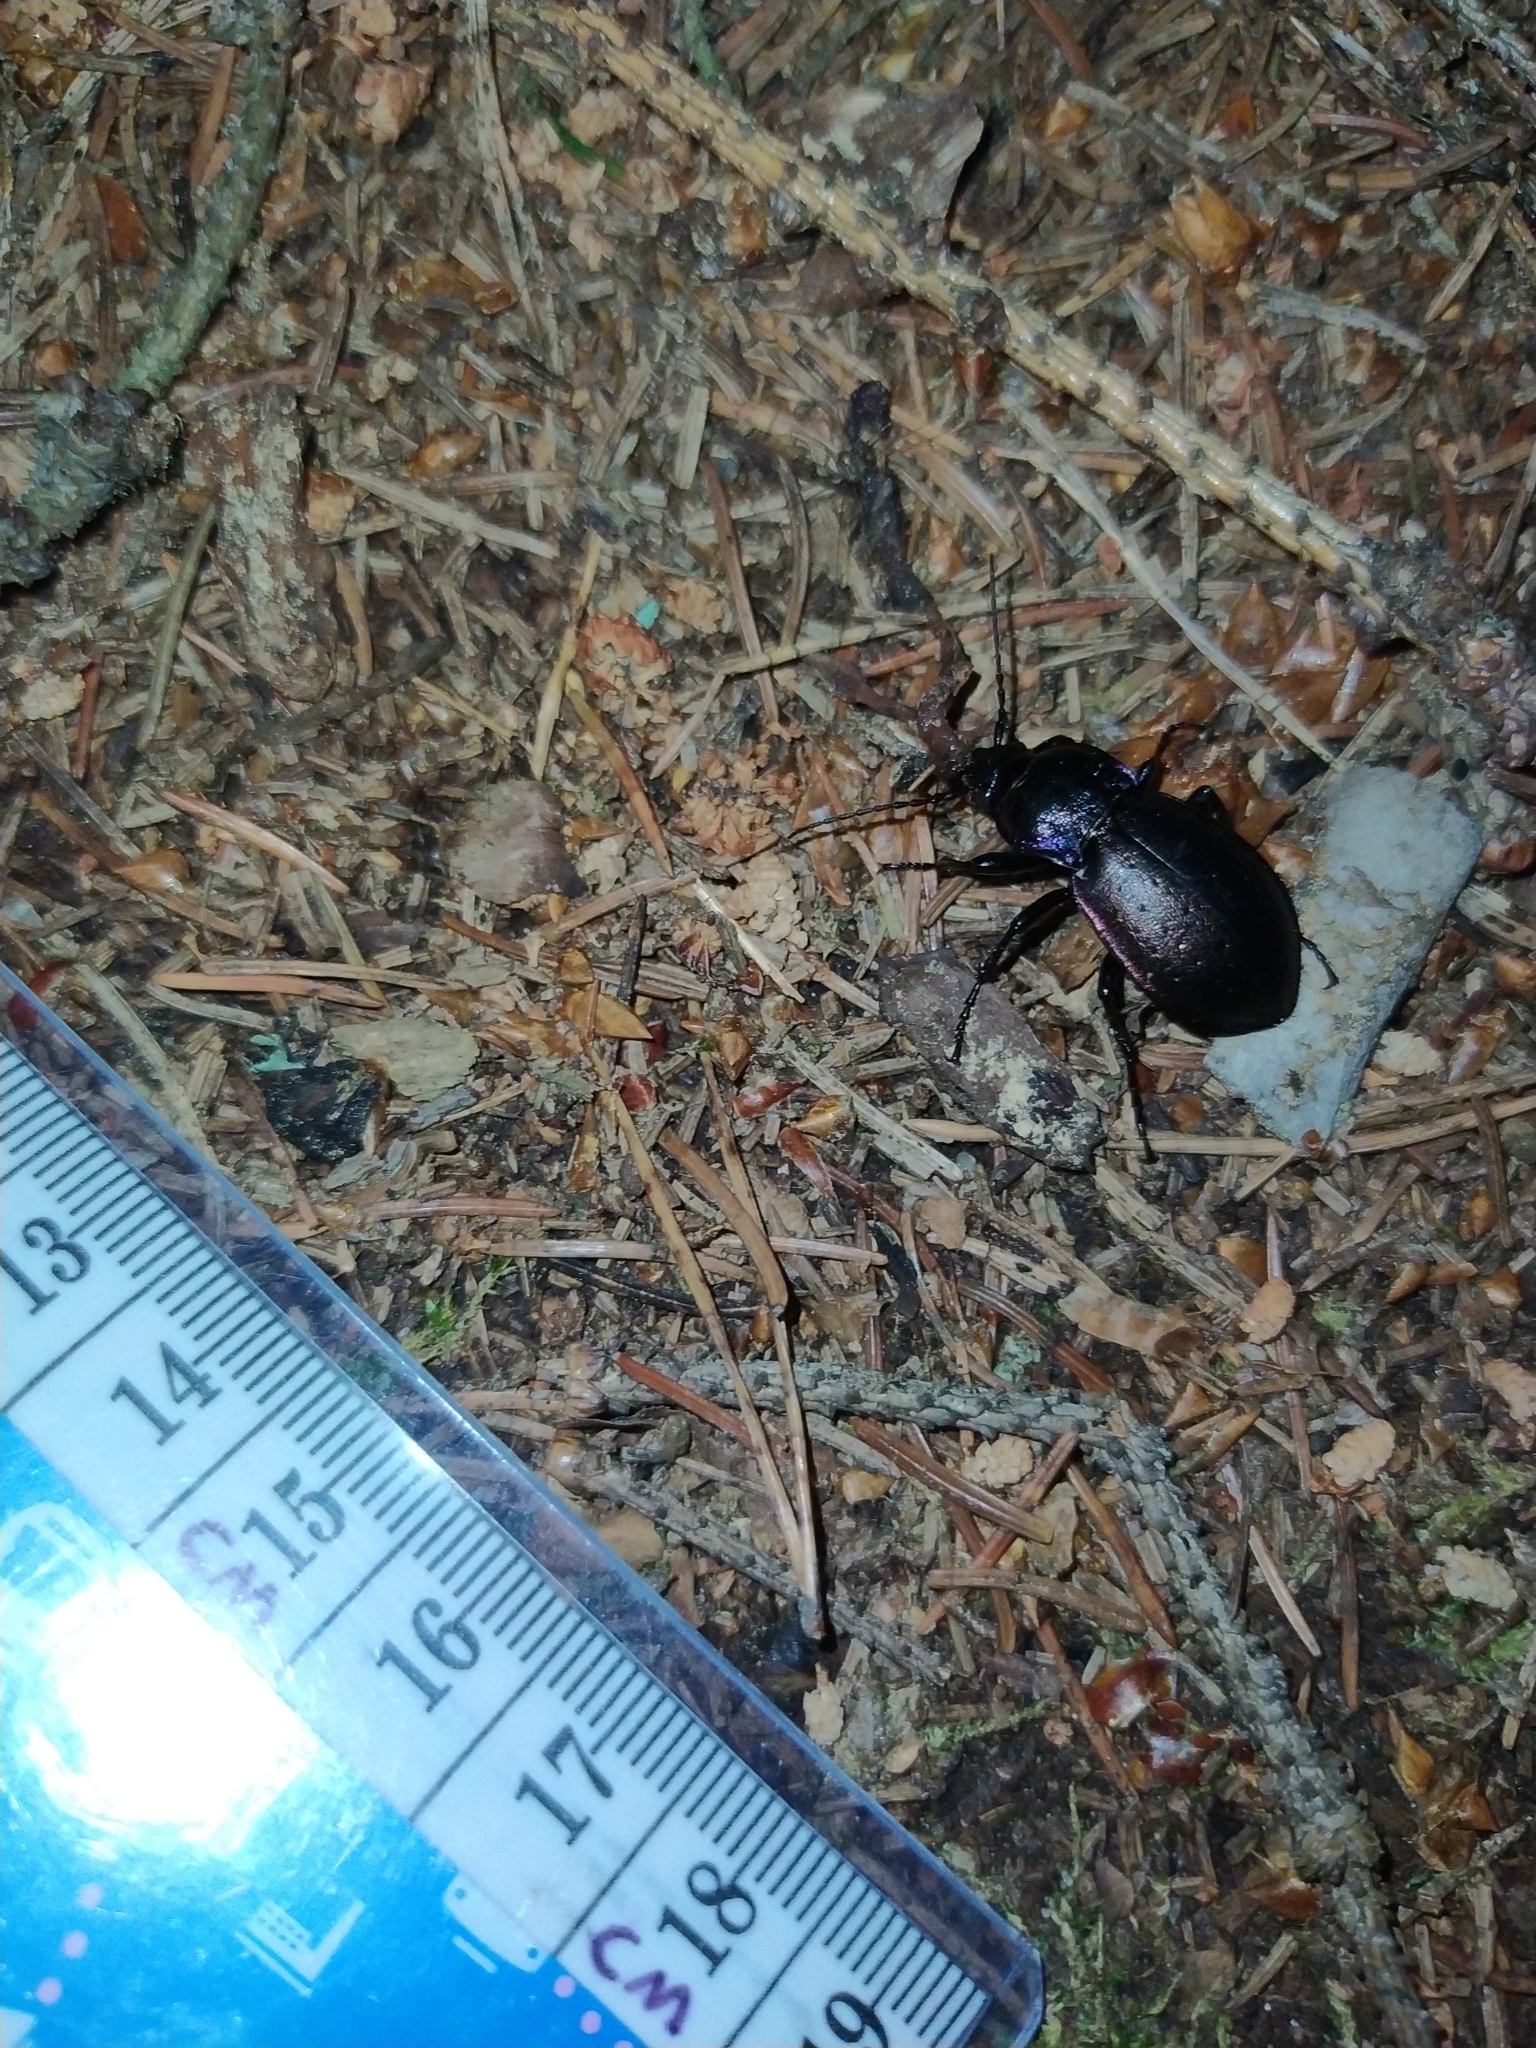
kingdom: Animalia
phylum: Arthropoda
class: Insecta
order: Coleoptera
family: Carabidae
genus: Carabus
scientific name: Carabus nemoralis
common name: European ground beetle
